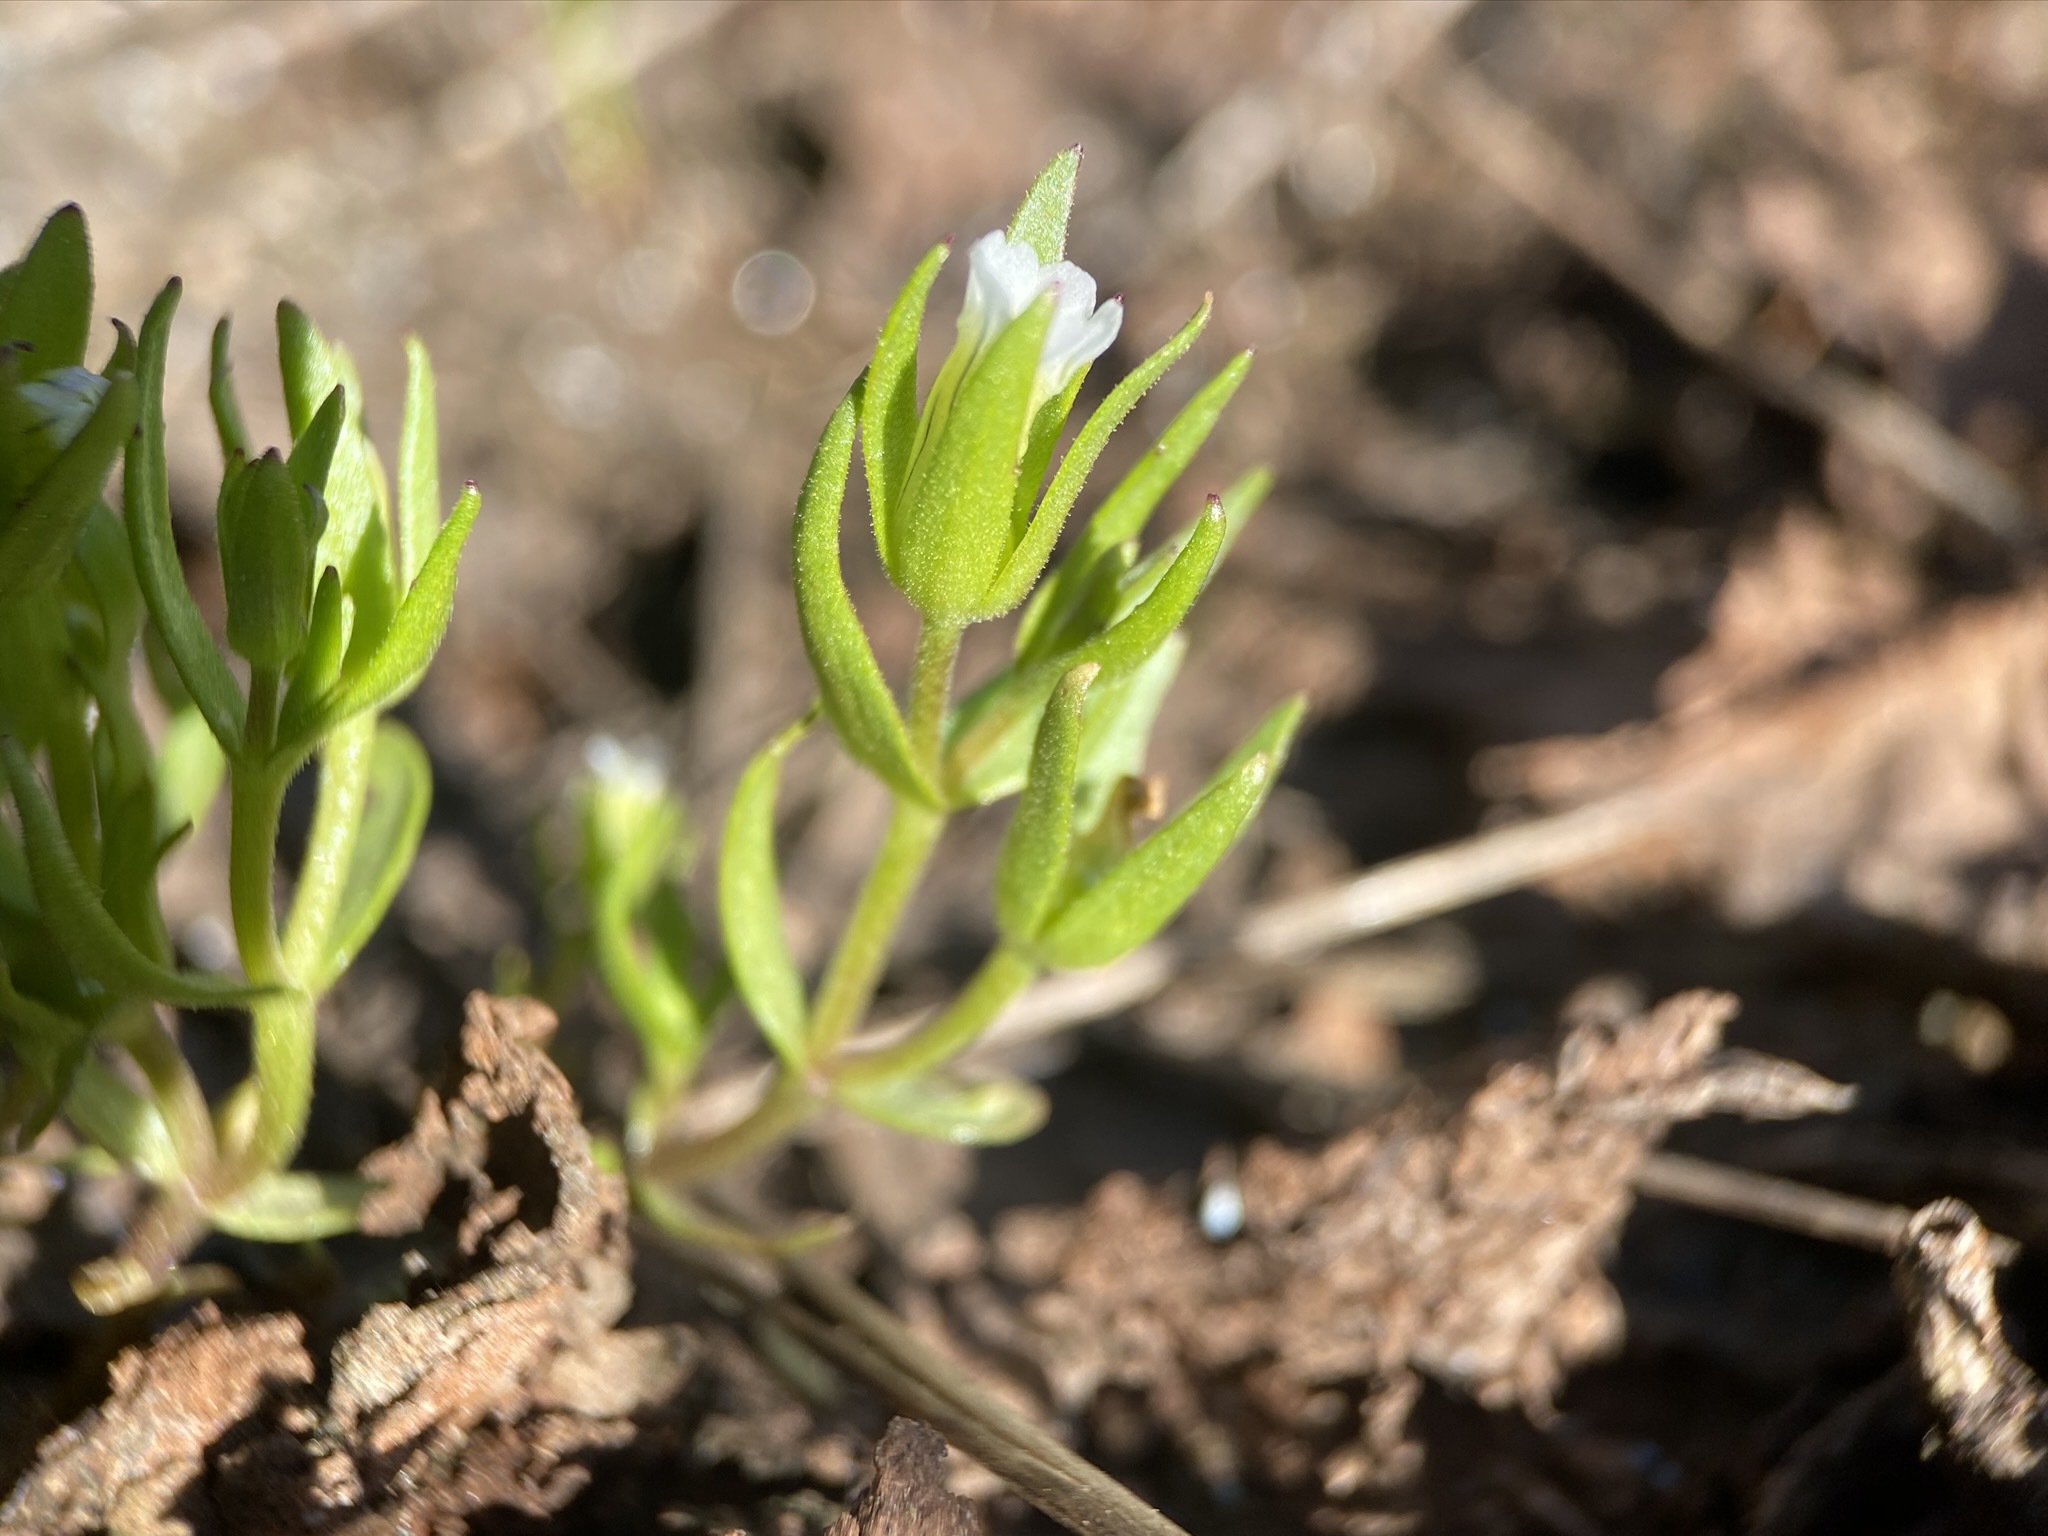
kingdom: Plantae
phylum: Tracheophyta
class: Magnoliopsida
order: Lamiales
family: Plantaginaceae
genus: Gratiola
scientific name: Gratiola ebracteata
